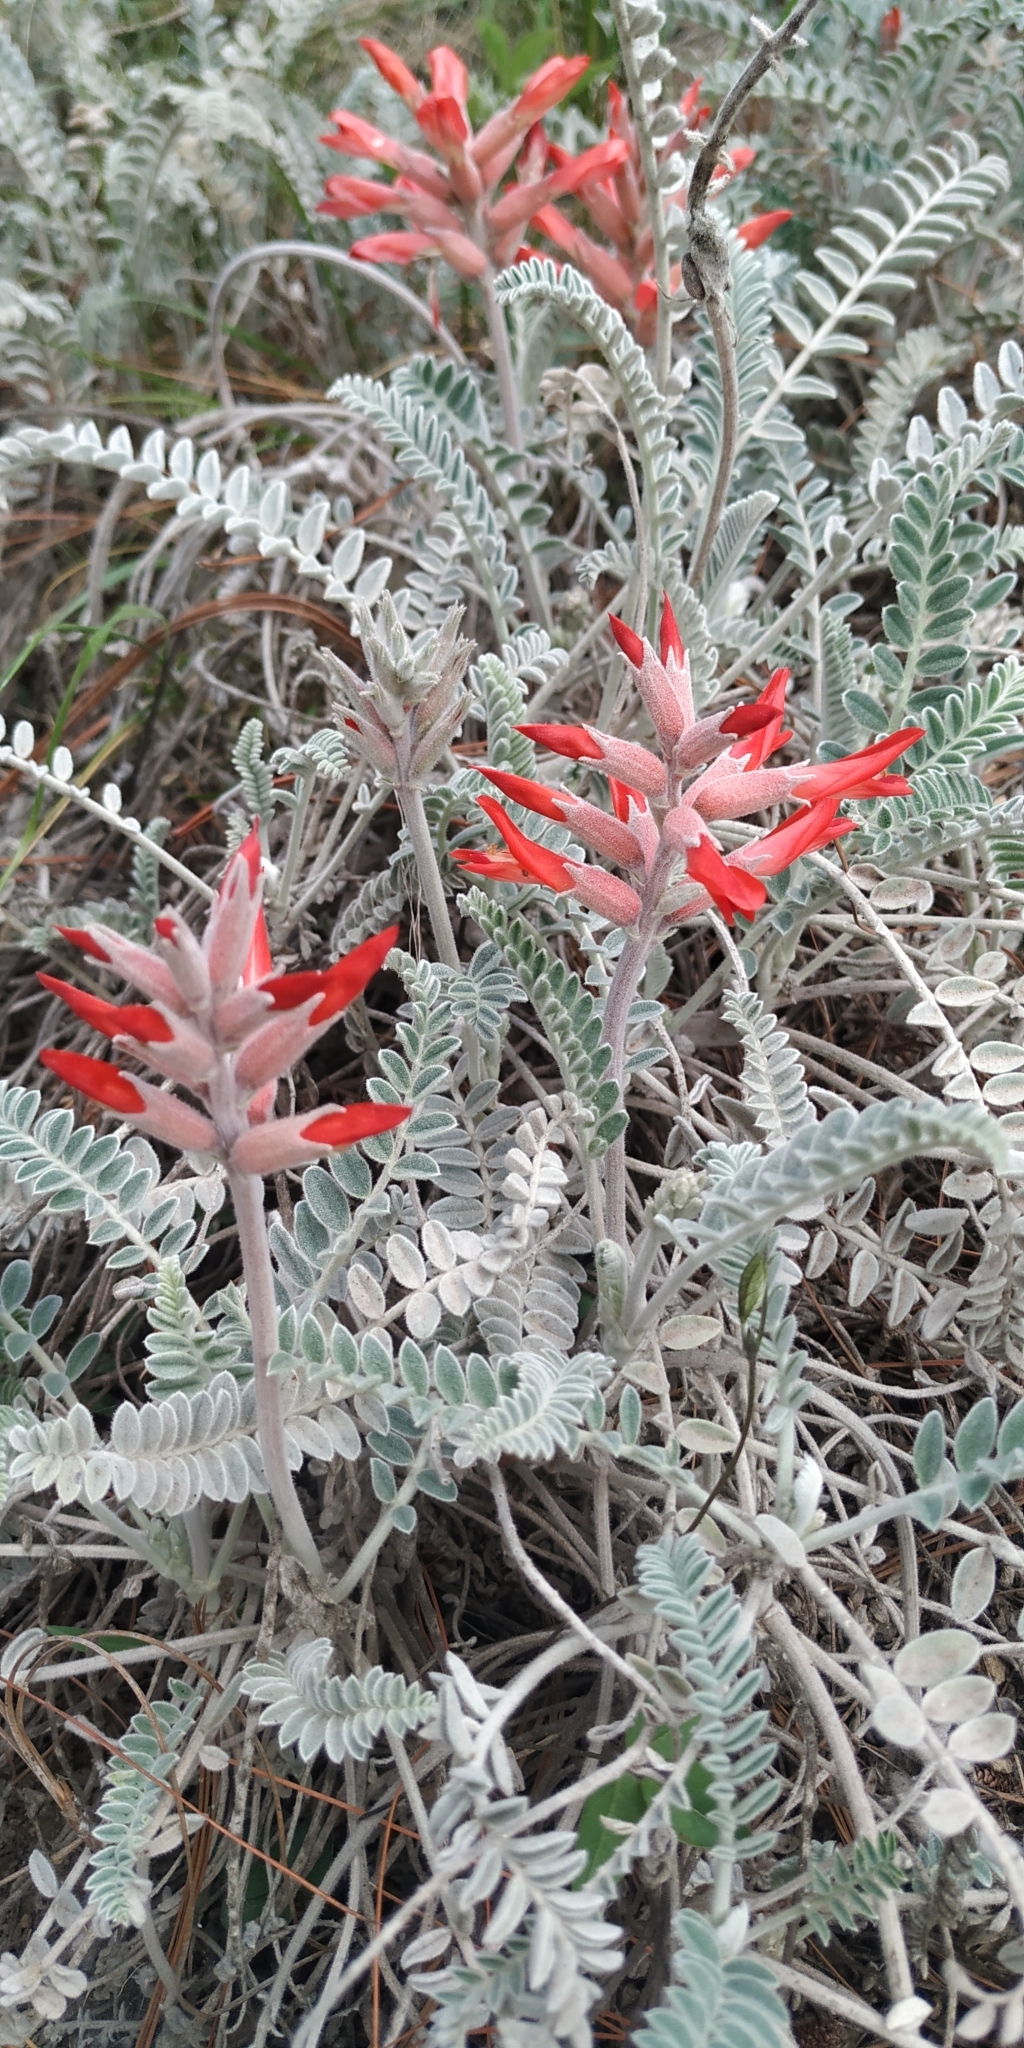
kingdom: Plantae
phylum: Tracheophyta
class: Magnoliopsida
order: Fabales
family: Fabaceae
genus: Astragalus
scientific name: Astragalus helleri
